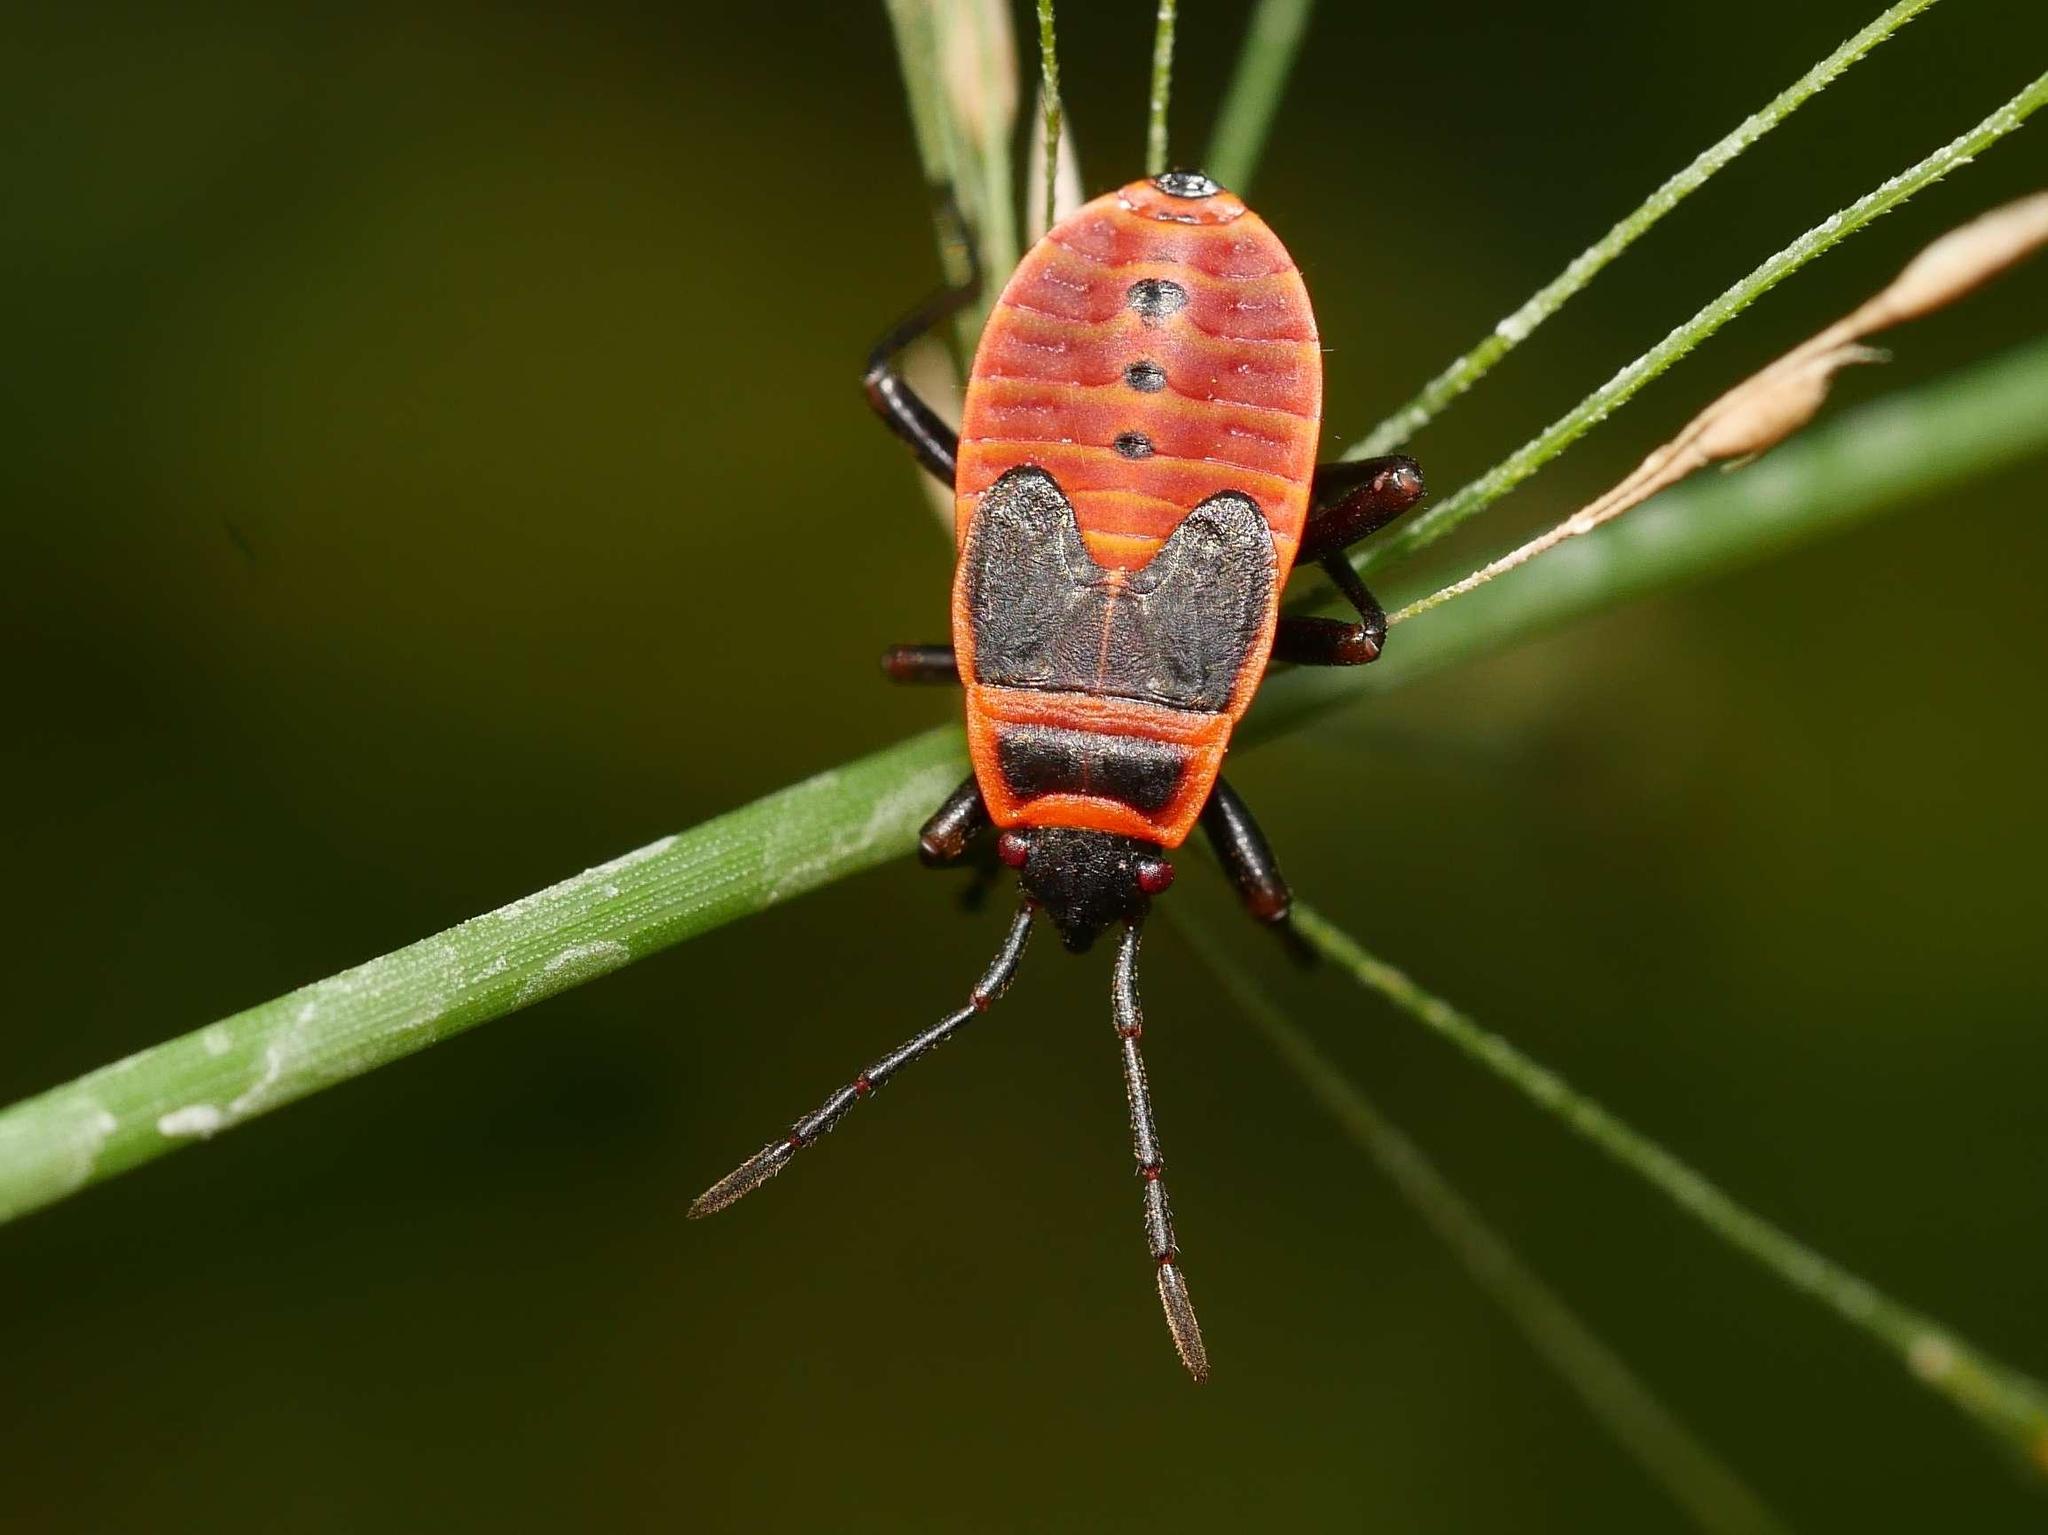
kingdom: Animalia
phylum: Arthropoda
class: Insecta
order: Hemiptera
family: Pyrrhocoridae
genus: Pyrrhocoris
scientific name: Pyrrhocoris apterus
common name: Firebug
